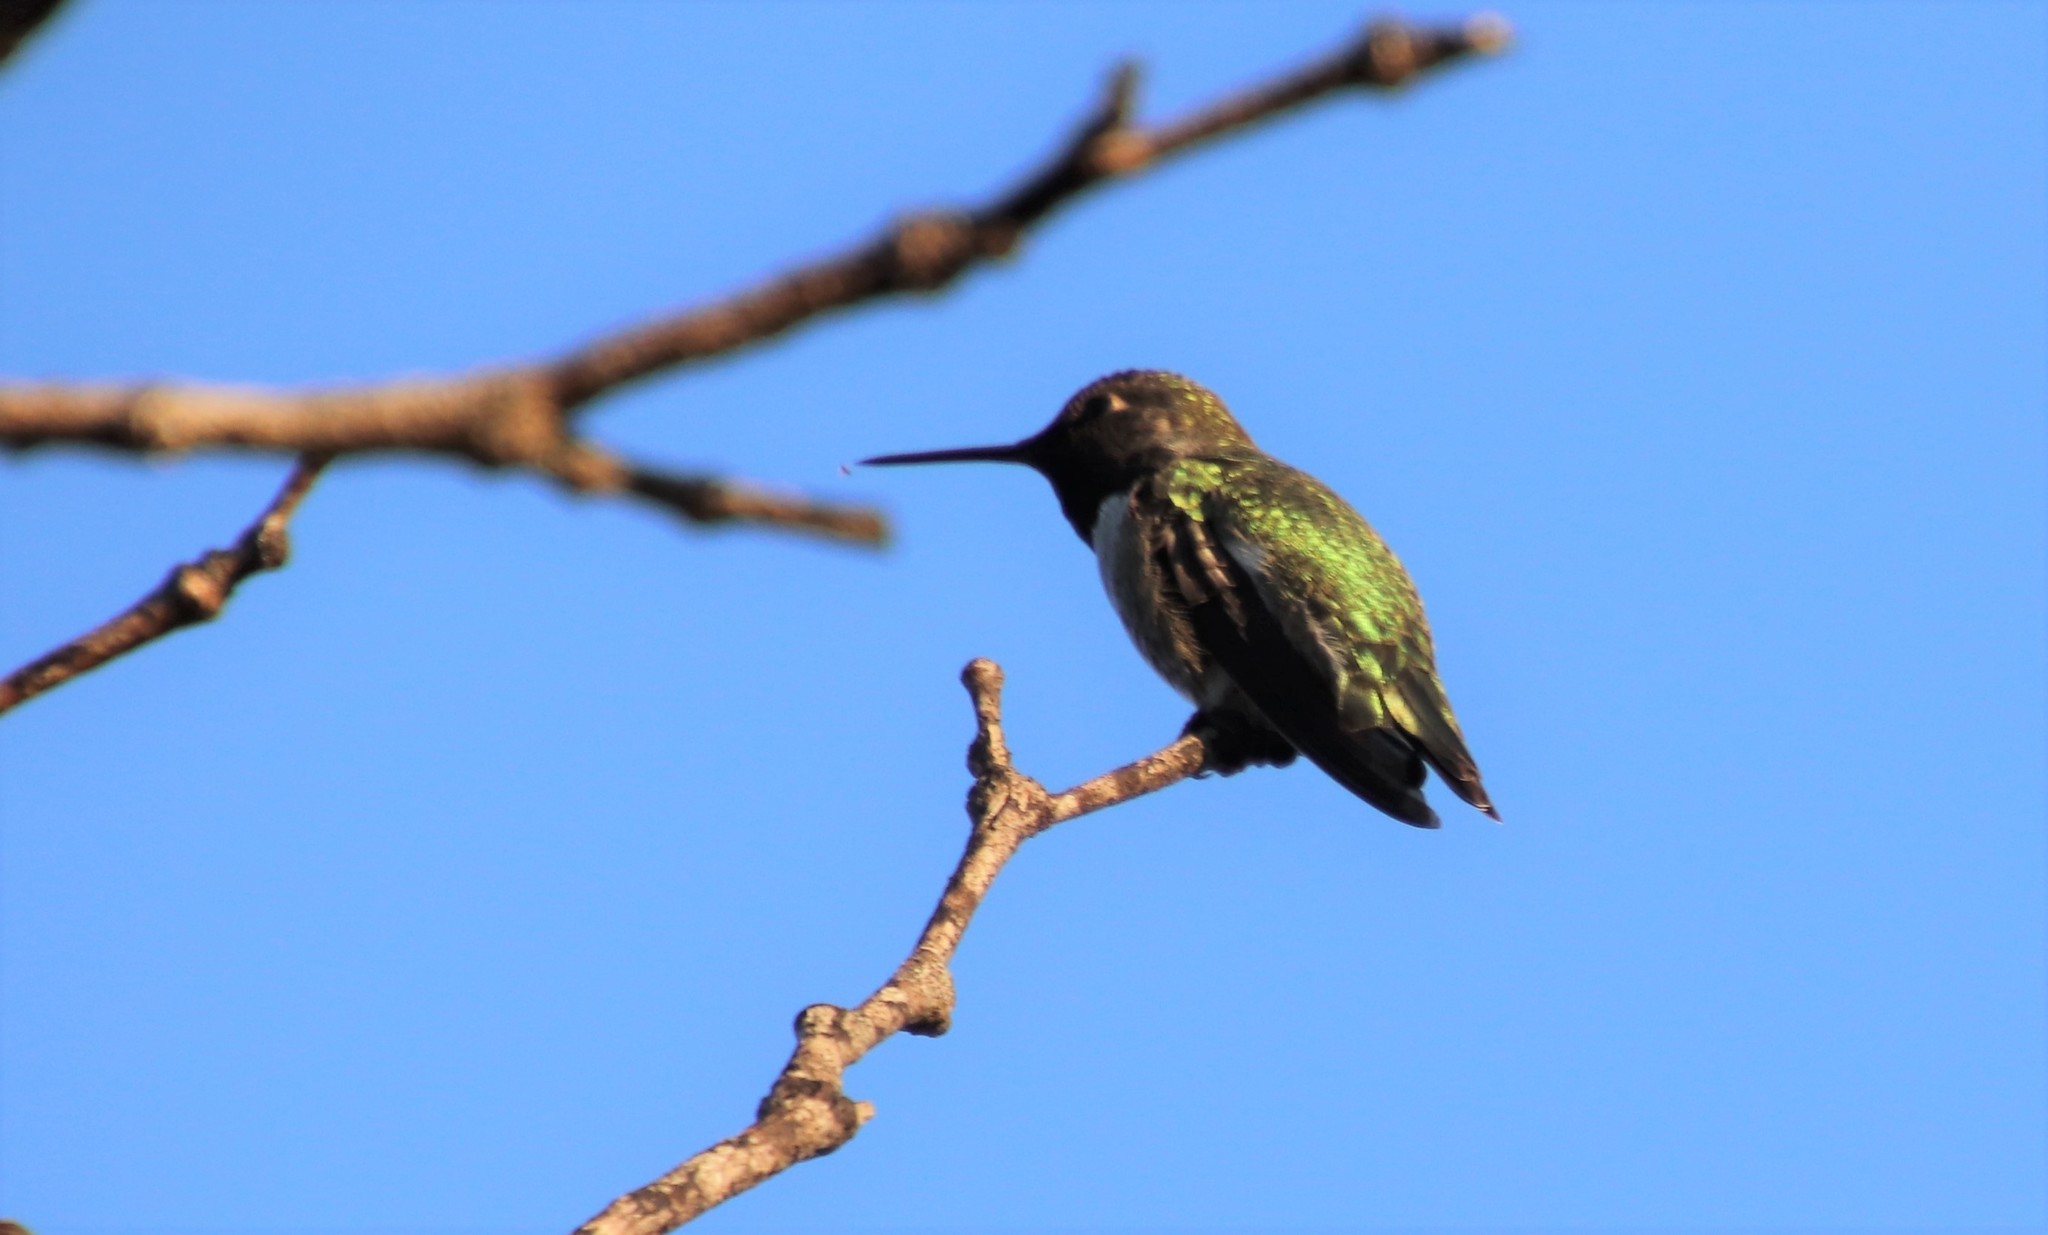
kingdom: Animalia
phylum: Chordata
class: Aves
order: Apodiformes
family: Trochilidae
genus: Calypte
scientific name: Calypte anna
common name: Anna's hummingbird
